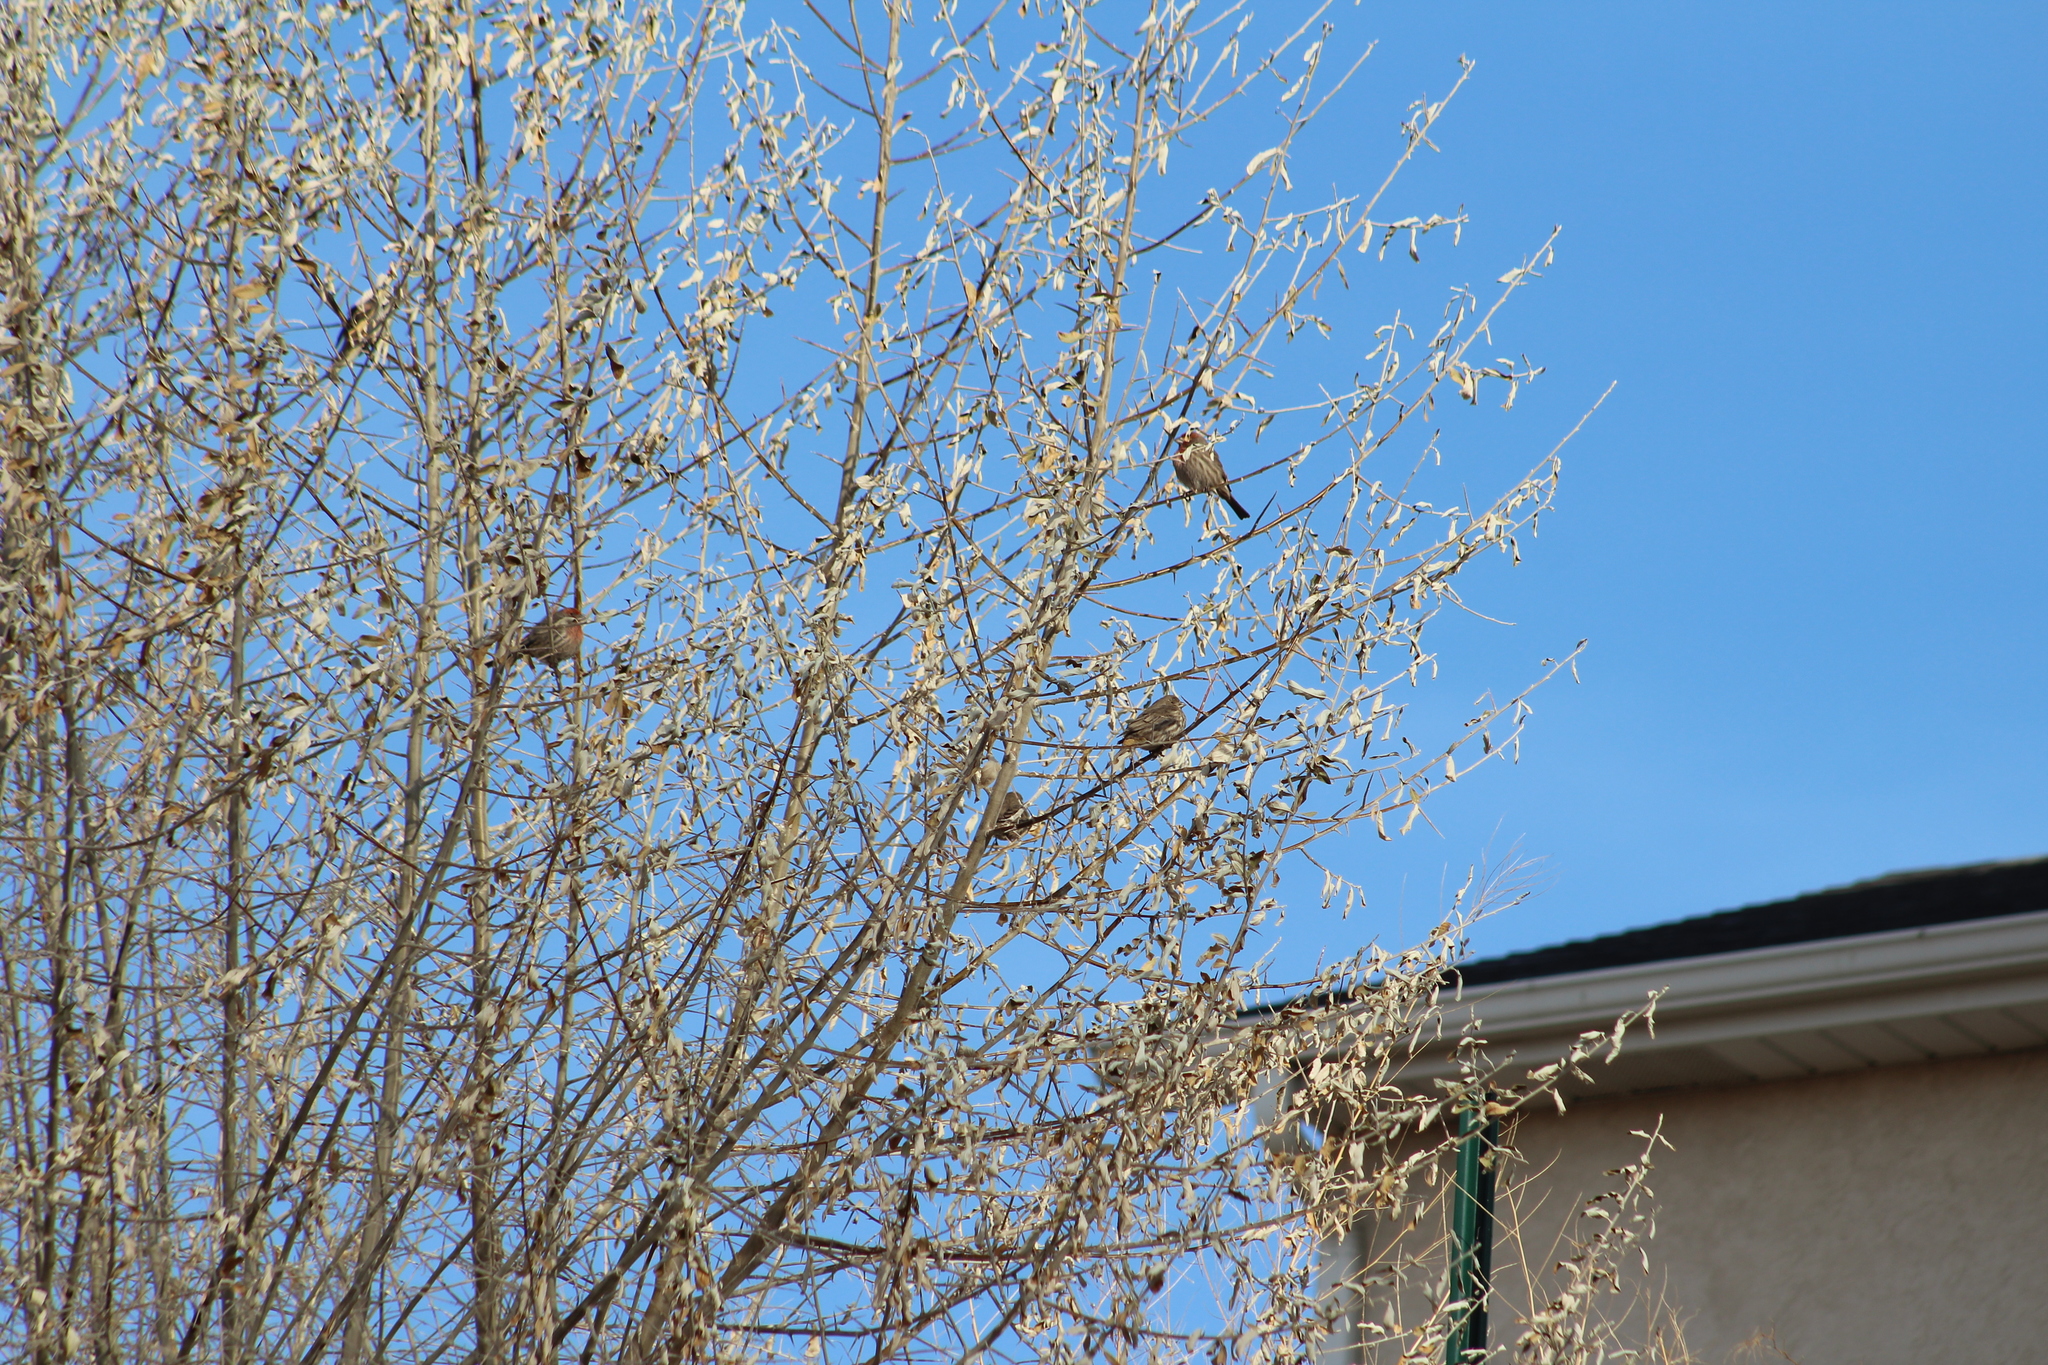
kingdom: Animalia
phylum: Chordata
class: Aves
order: Passeriformes
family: Fringillidae
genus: Haemorhous
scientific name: Haemorhous mexicanus
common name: House finch
